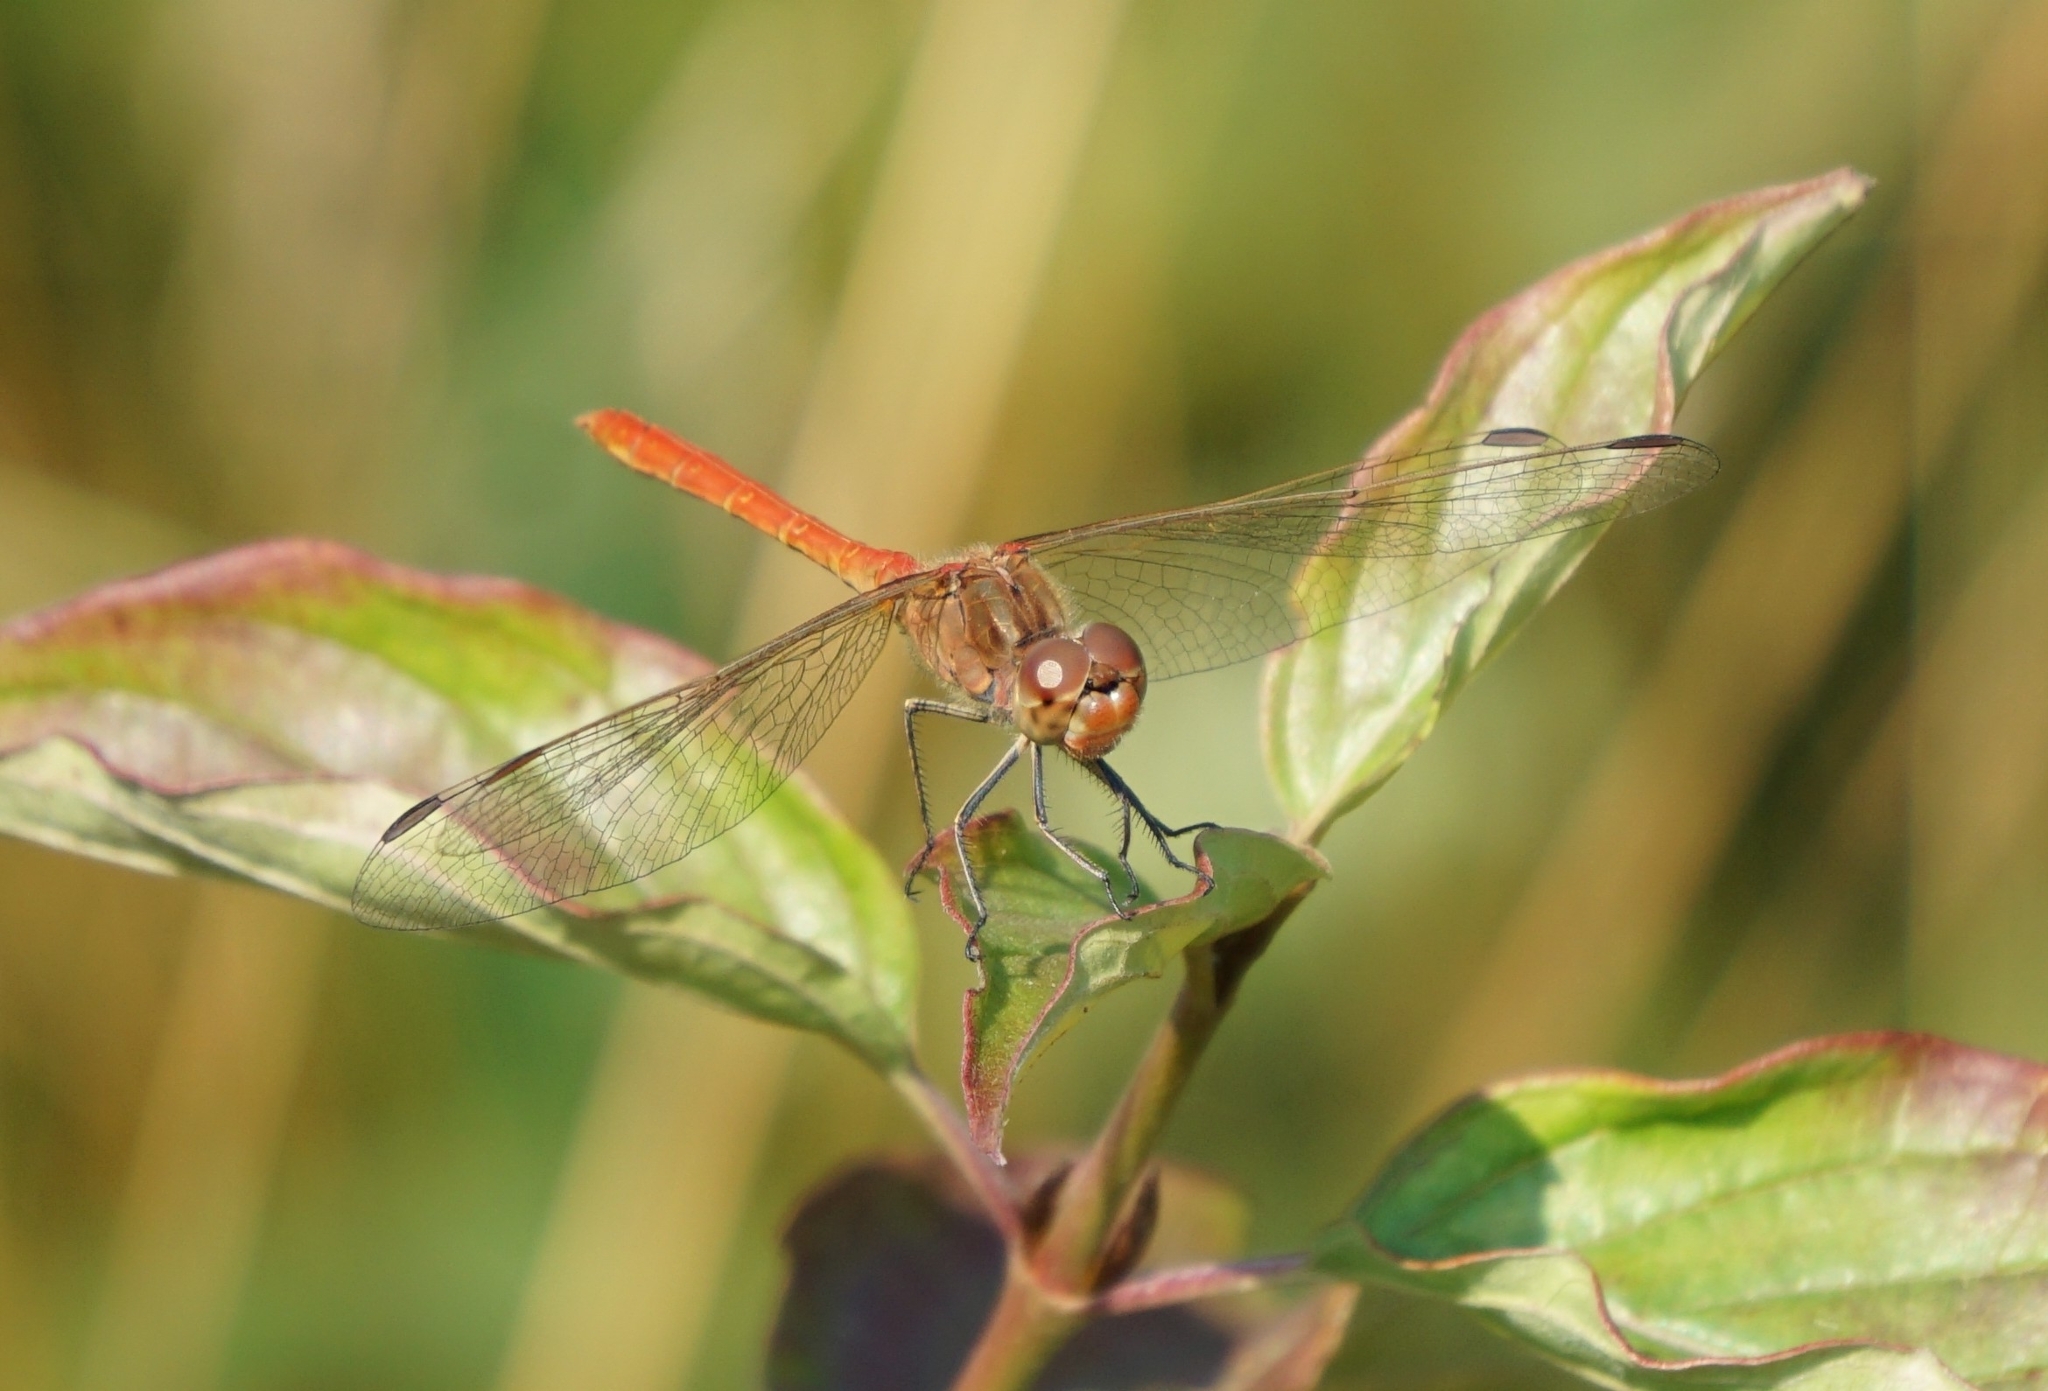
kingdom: Animalia
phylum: Arthropoda
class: Insecta
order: Odonata
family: Libellulidae
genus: Sympetrum
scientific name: Sympetrum meridionale
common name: Southern darter
